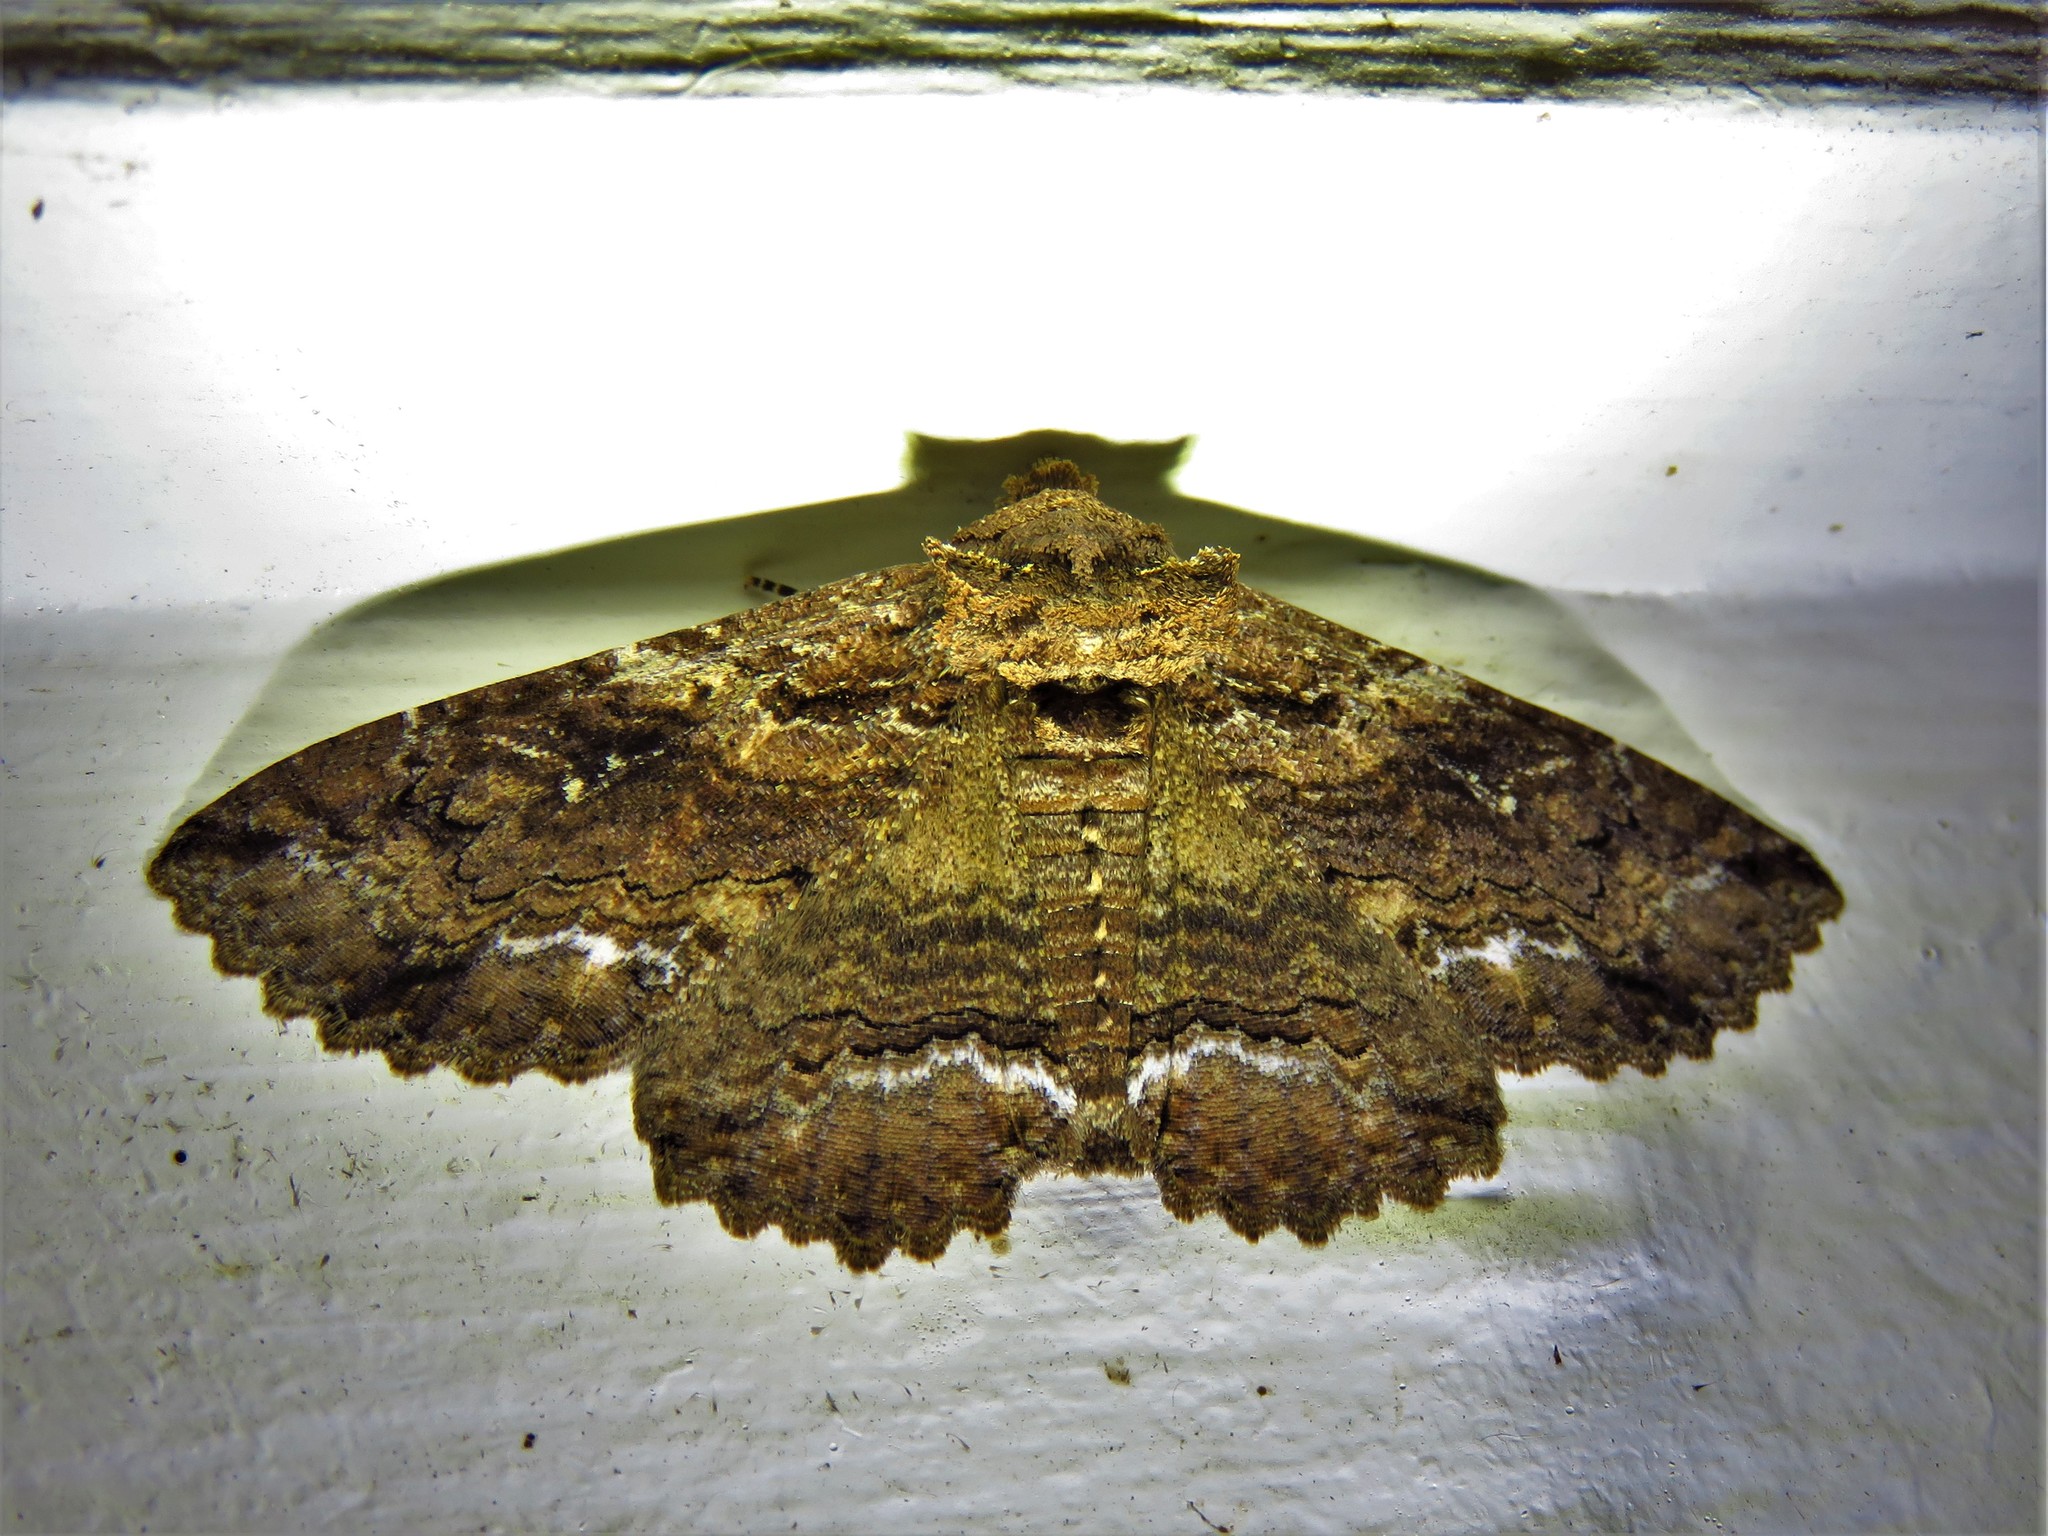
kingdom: Animalia
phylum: Arthropoda
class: Insecta
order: Lepidoptera
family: Erebidae
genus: Zale
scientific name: Zale lunata
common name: Lunate zale moth
